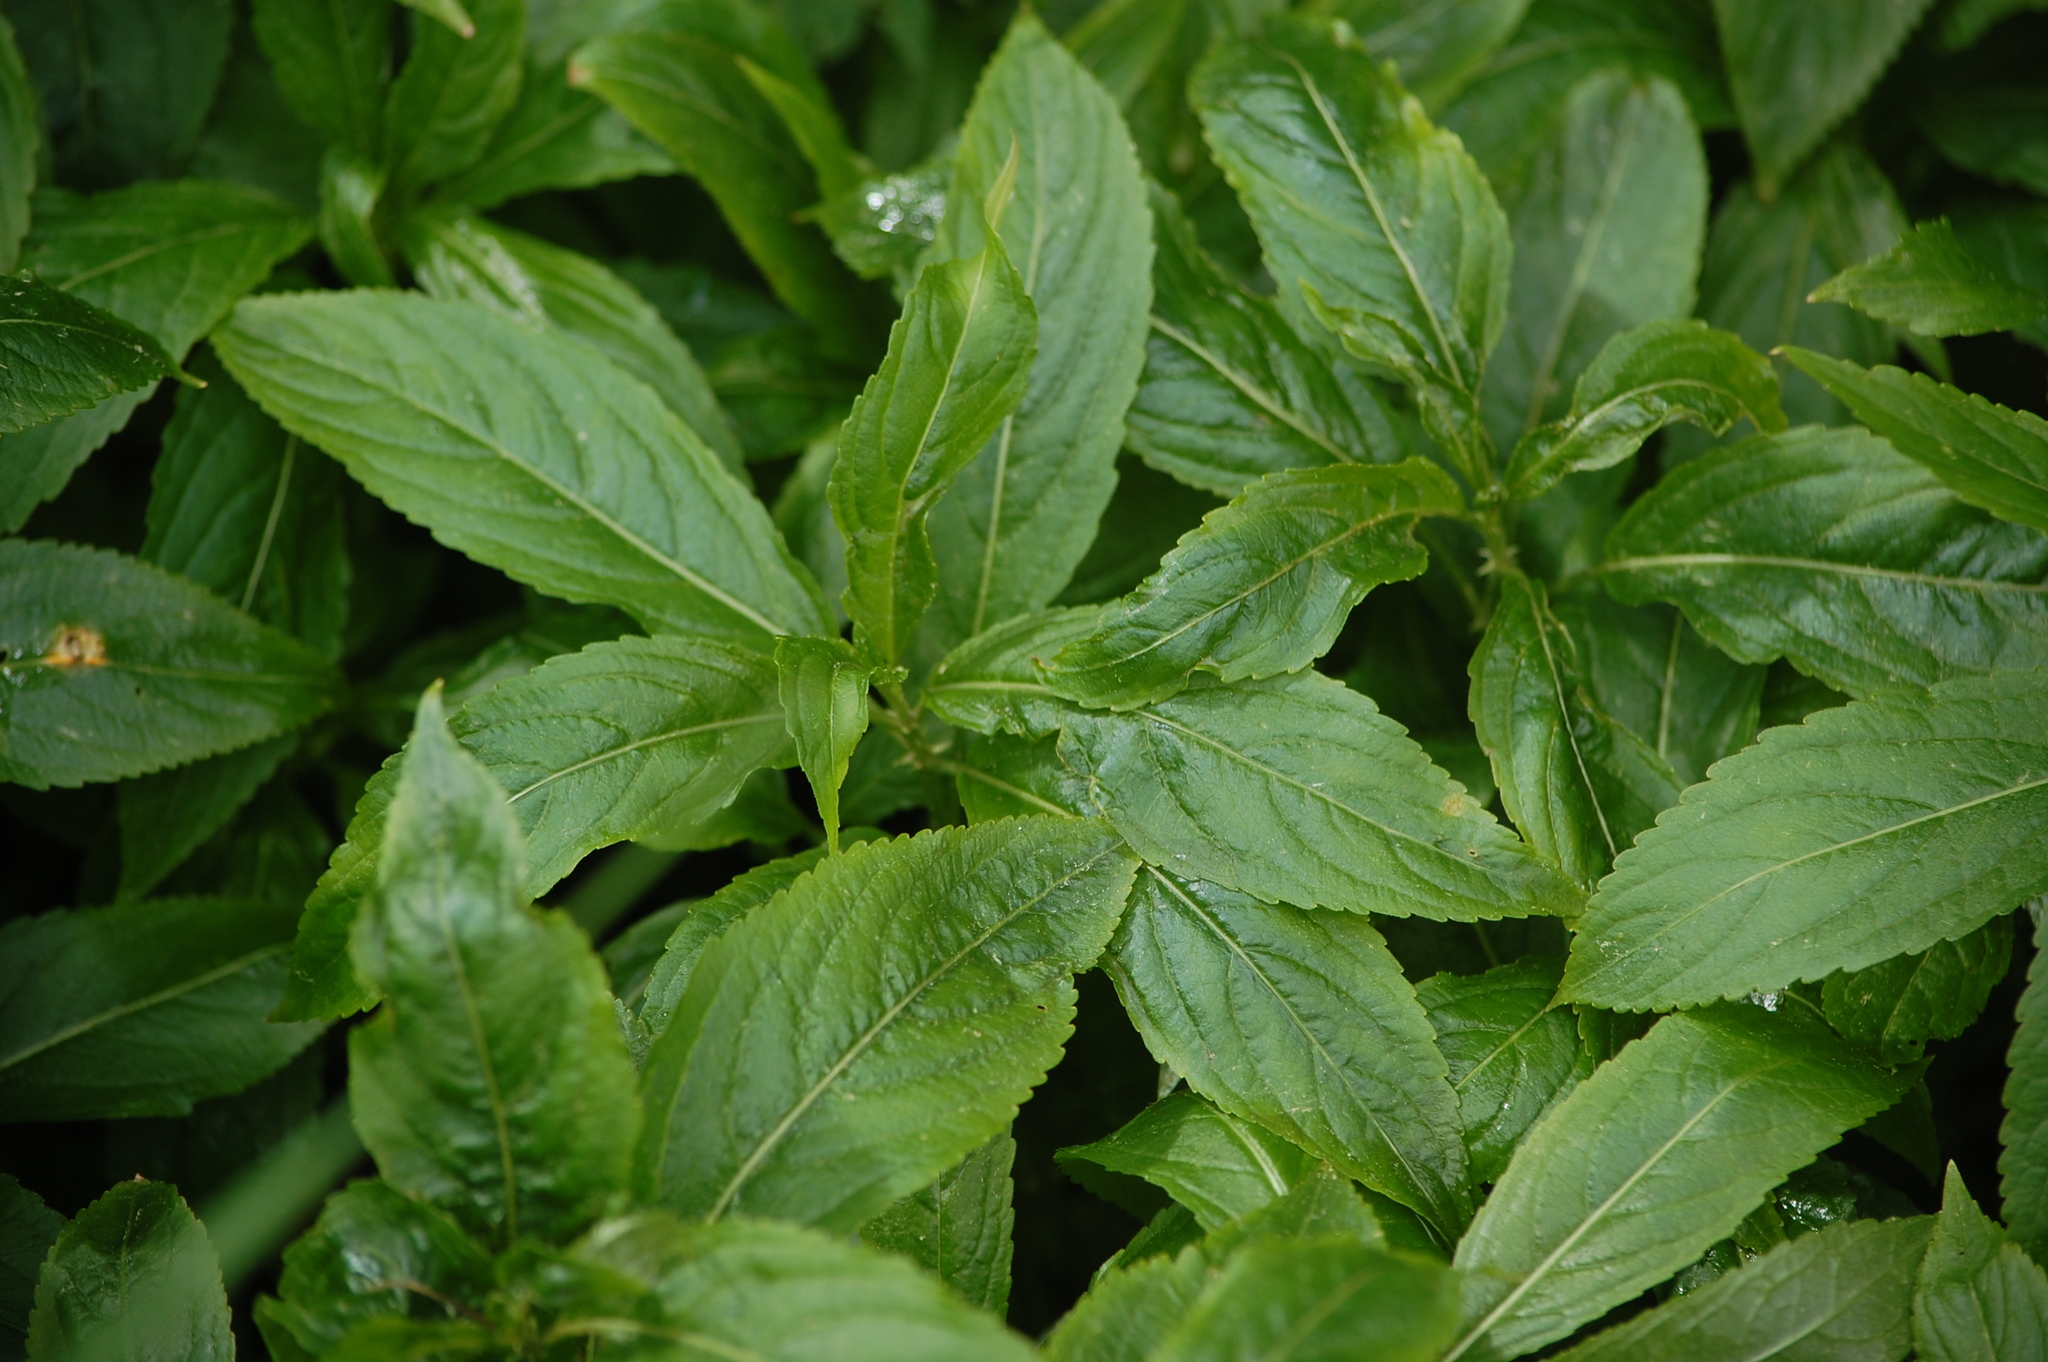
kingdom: Plantae
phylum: Tracheophyta
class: Magnoliopsida
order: Malpighiales
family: Euphorbiaceae
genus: Mercurialis
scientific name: Mercurialis perennis
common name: Dog mercury
